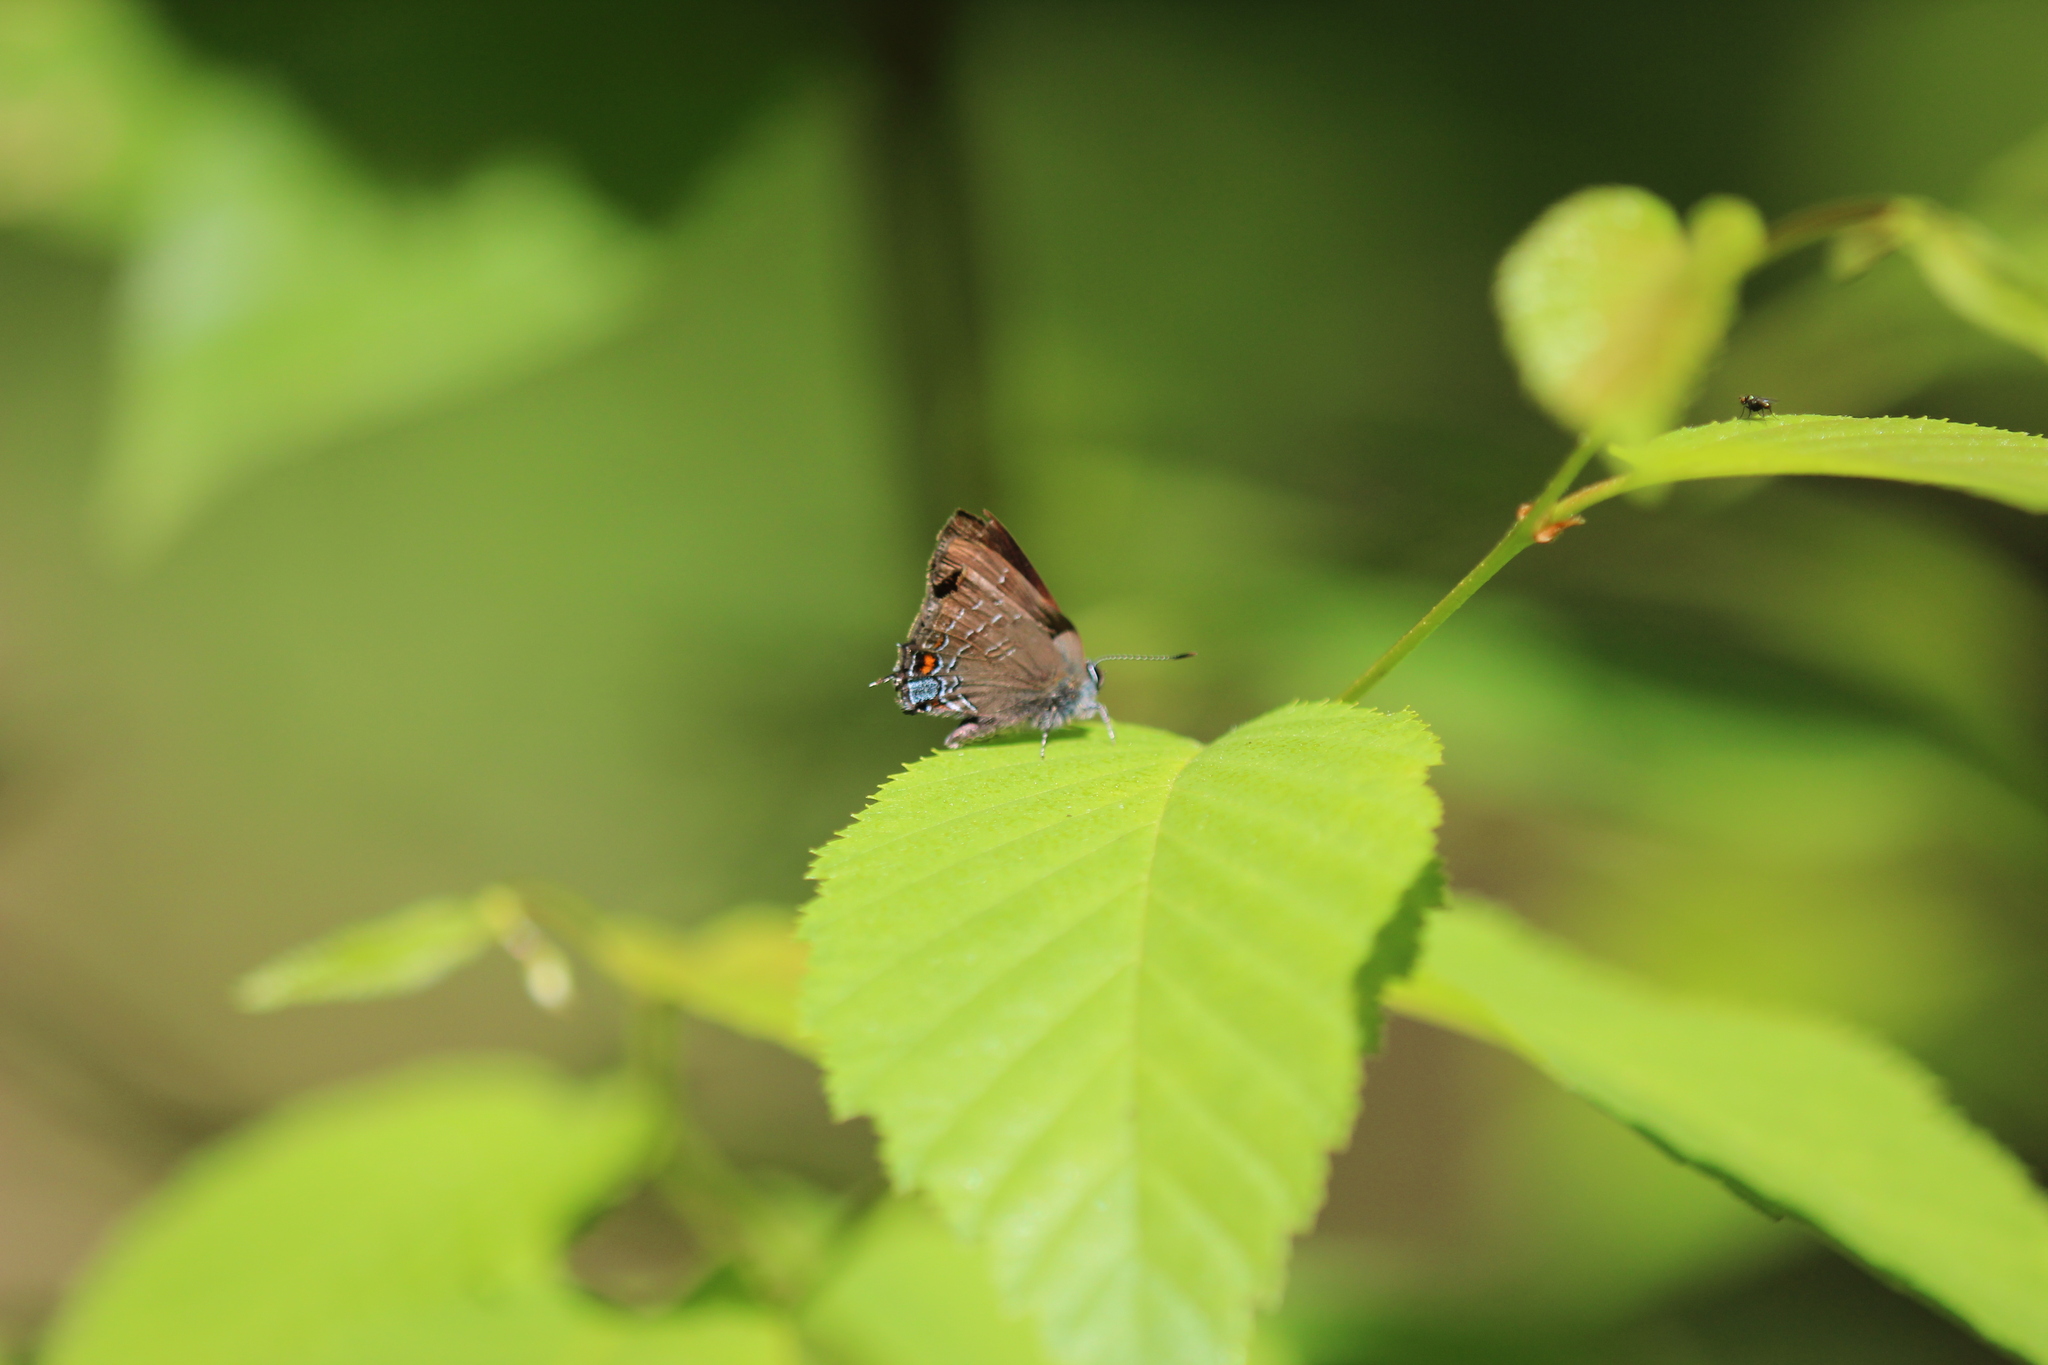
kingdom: Animalia
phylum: Arthropoda
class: Insecta
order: Lepidoptera
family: Lycaenidae
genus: Satyrium
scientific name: Satyrium calanus
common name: Banded hairstreak
